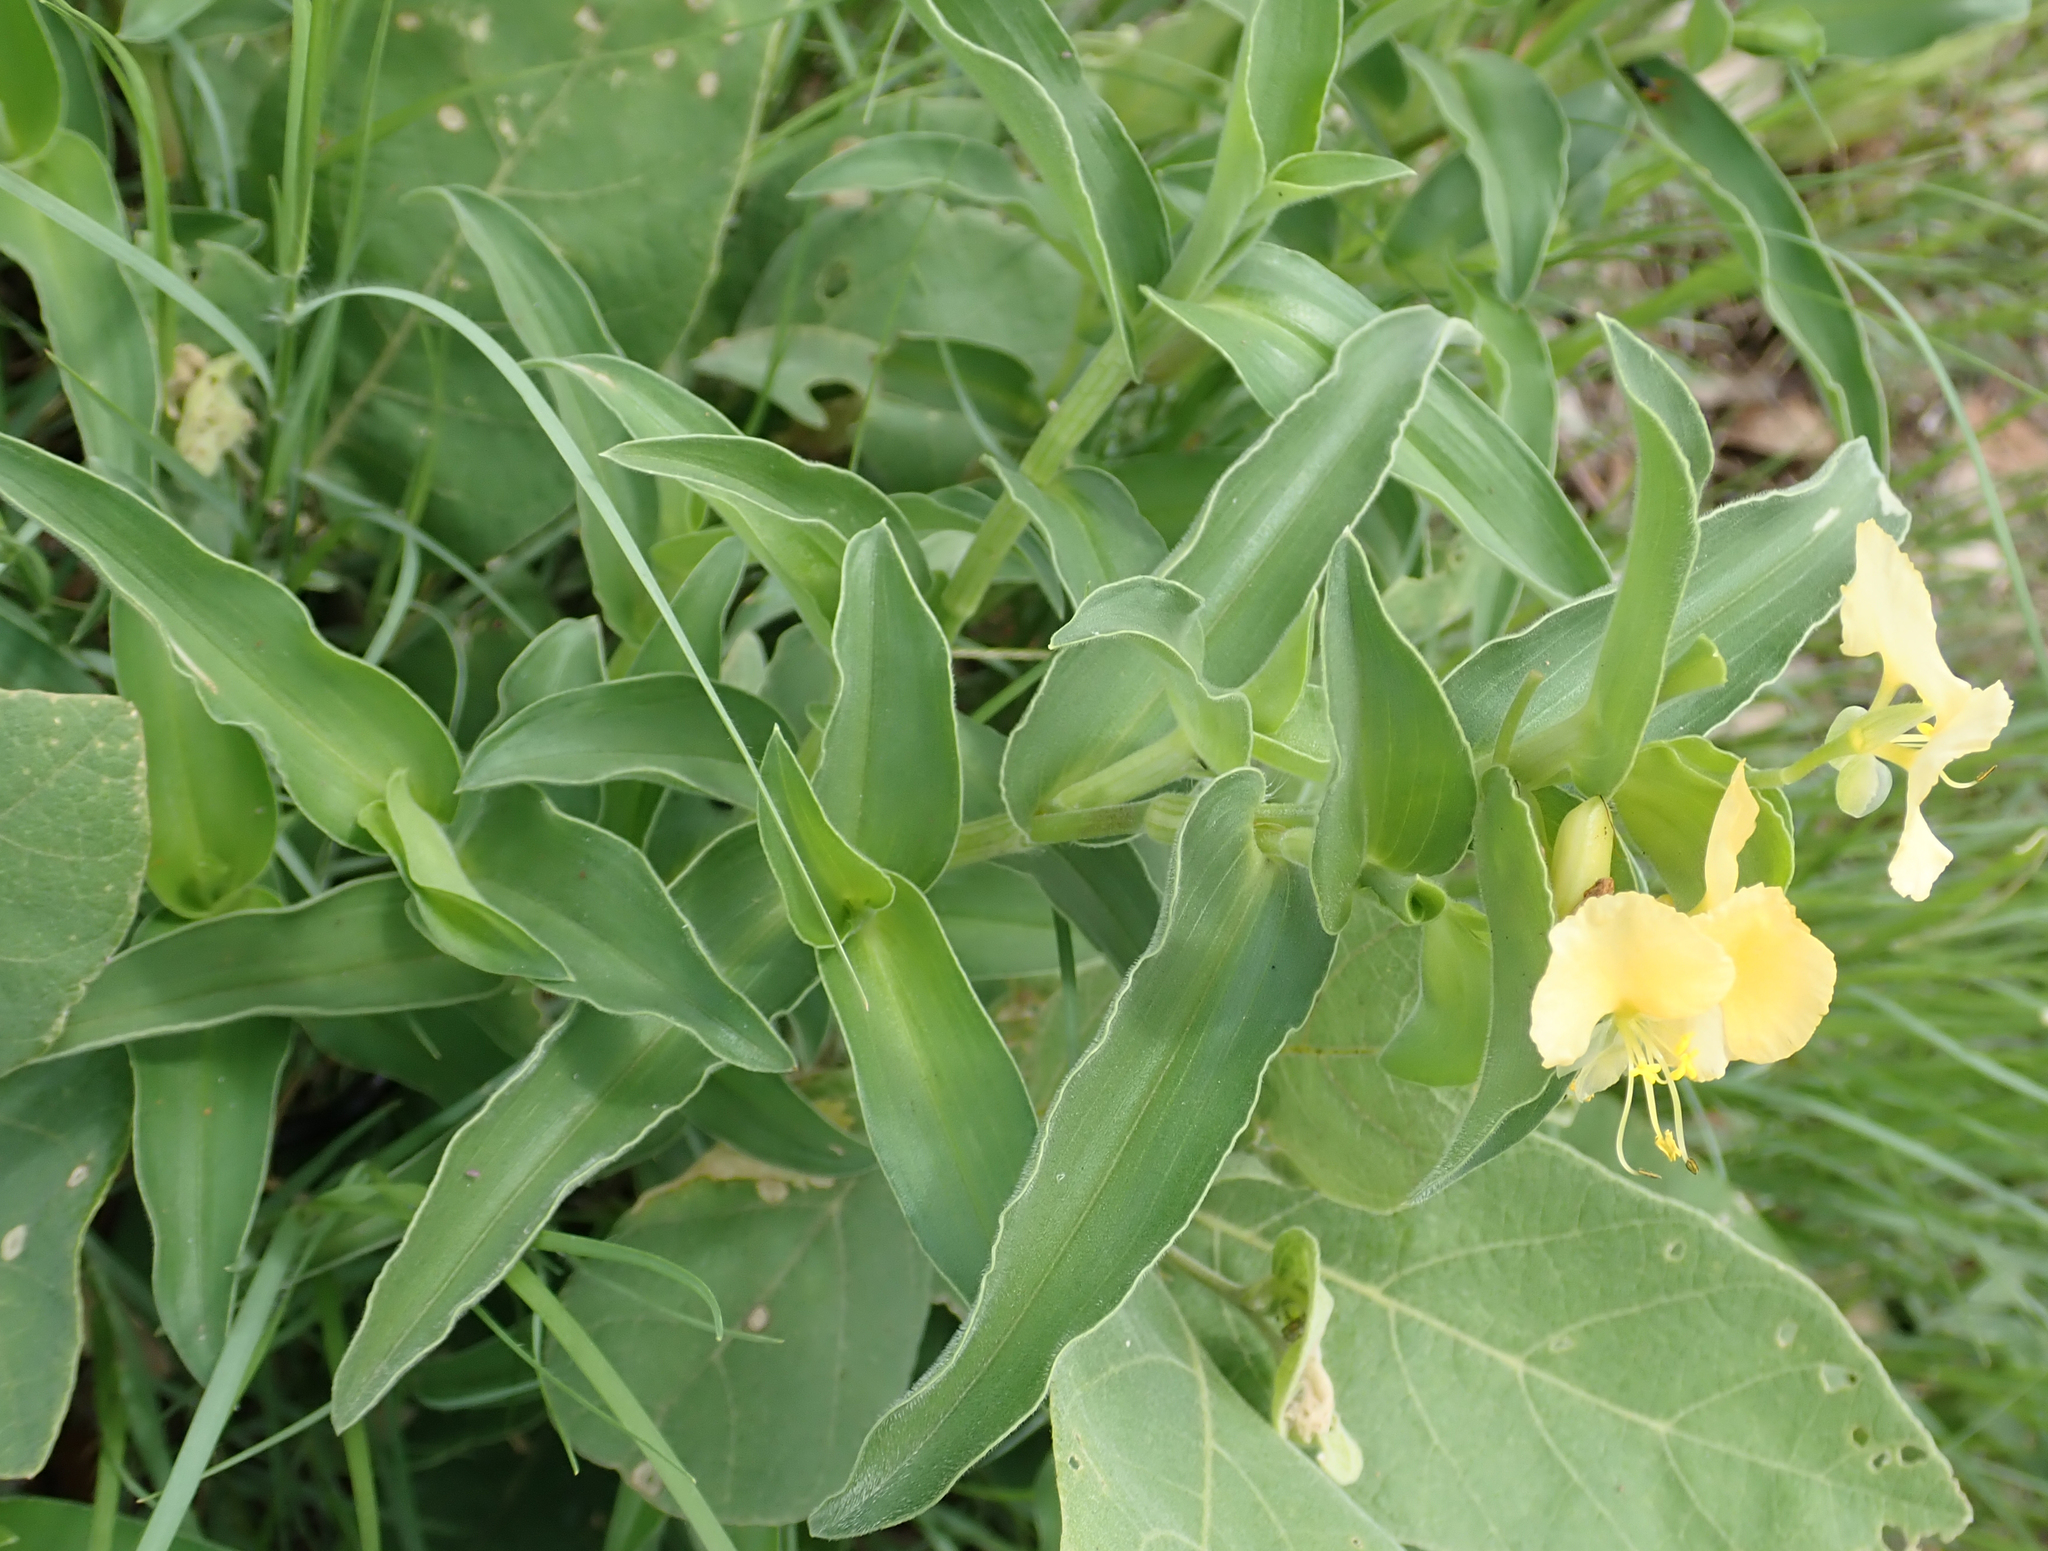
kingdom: Plantae
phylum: Tracheophyta
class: Liliopsida
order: Commelinales
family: Commelinaceae
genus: Commelina
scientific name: Commelina africana
